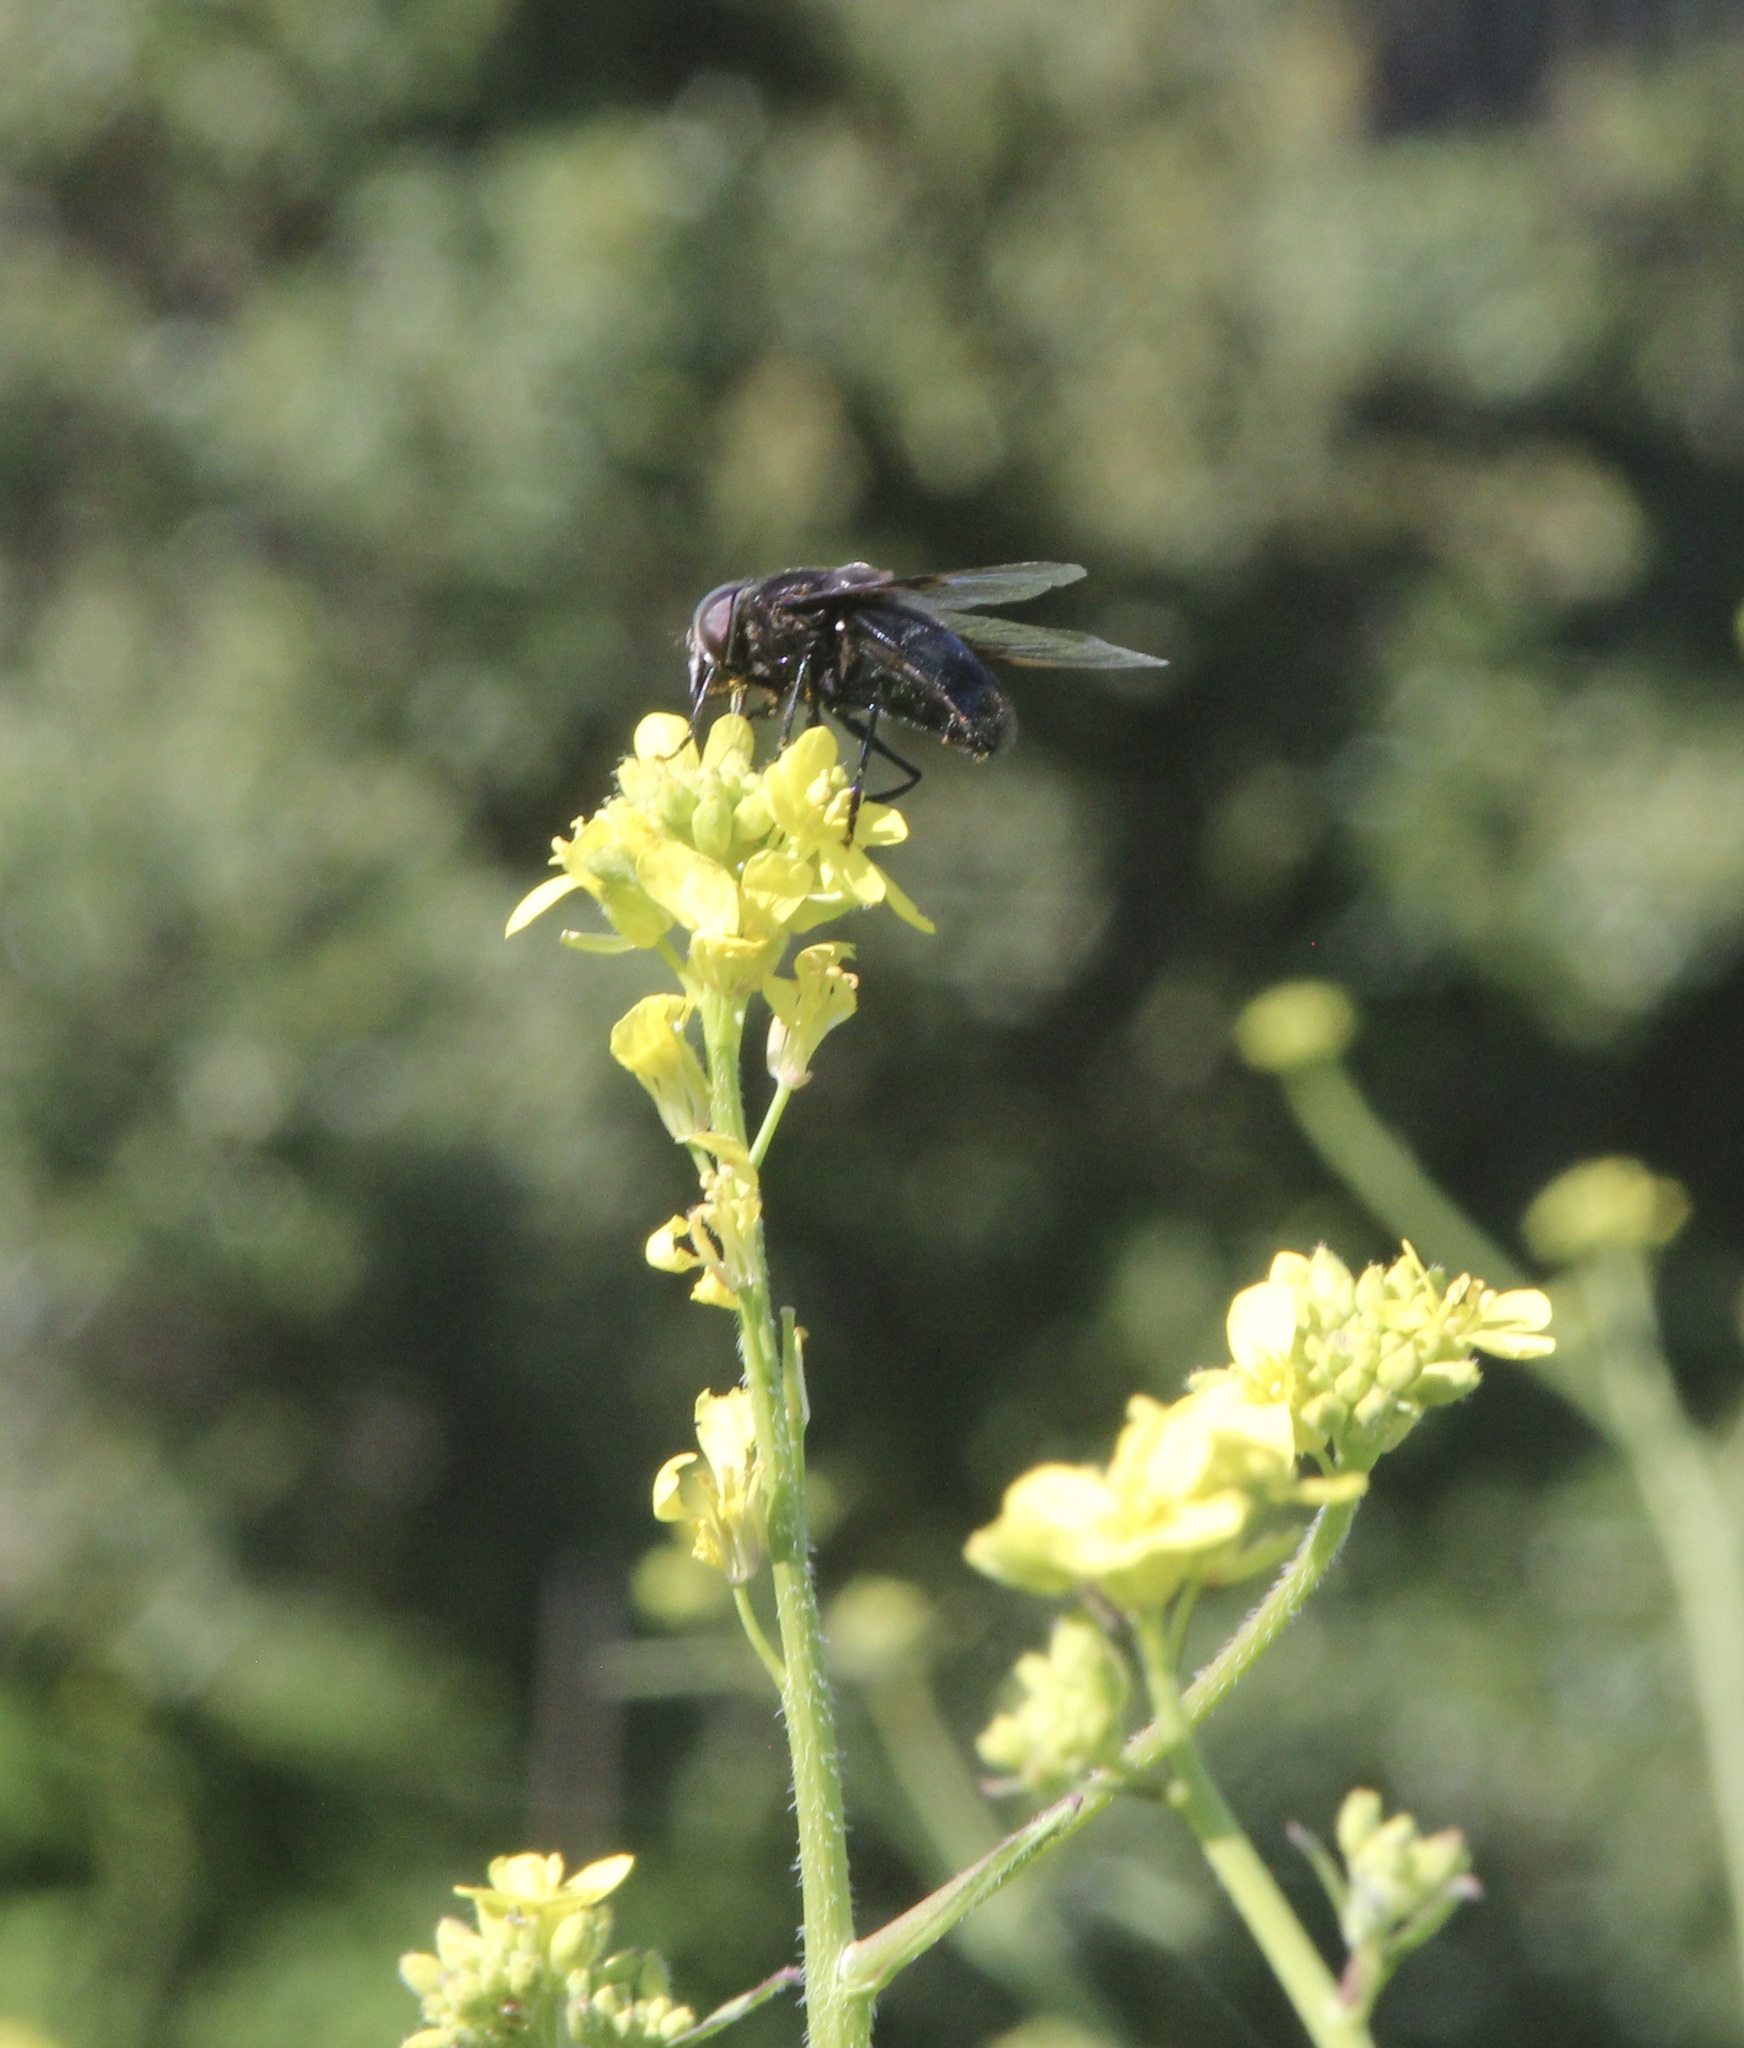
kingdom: Animalia
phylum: Arthropoda
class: Insecta
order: Diptera
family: Syrphidae
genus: Copestylum
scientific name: Copestylum mexicanum
